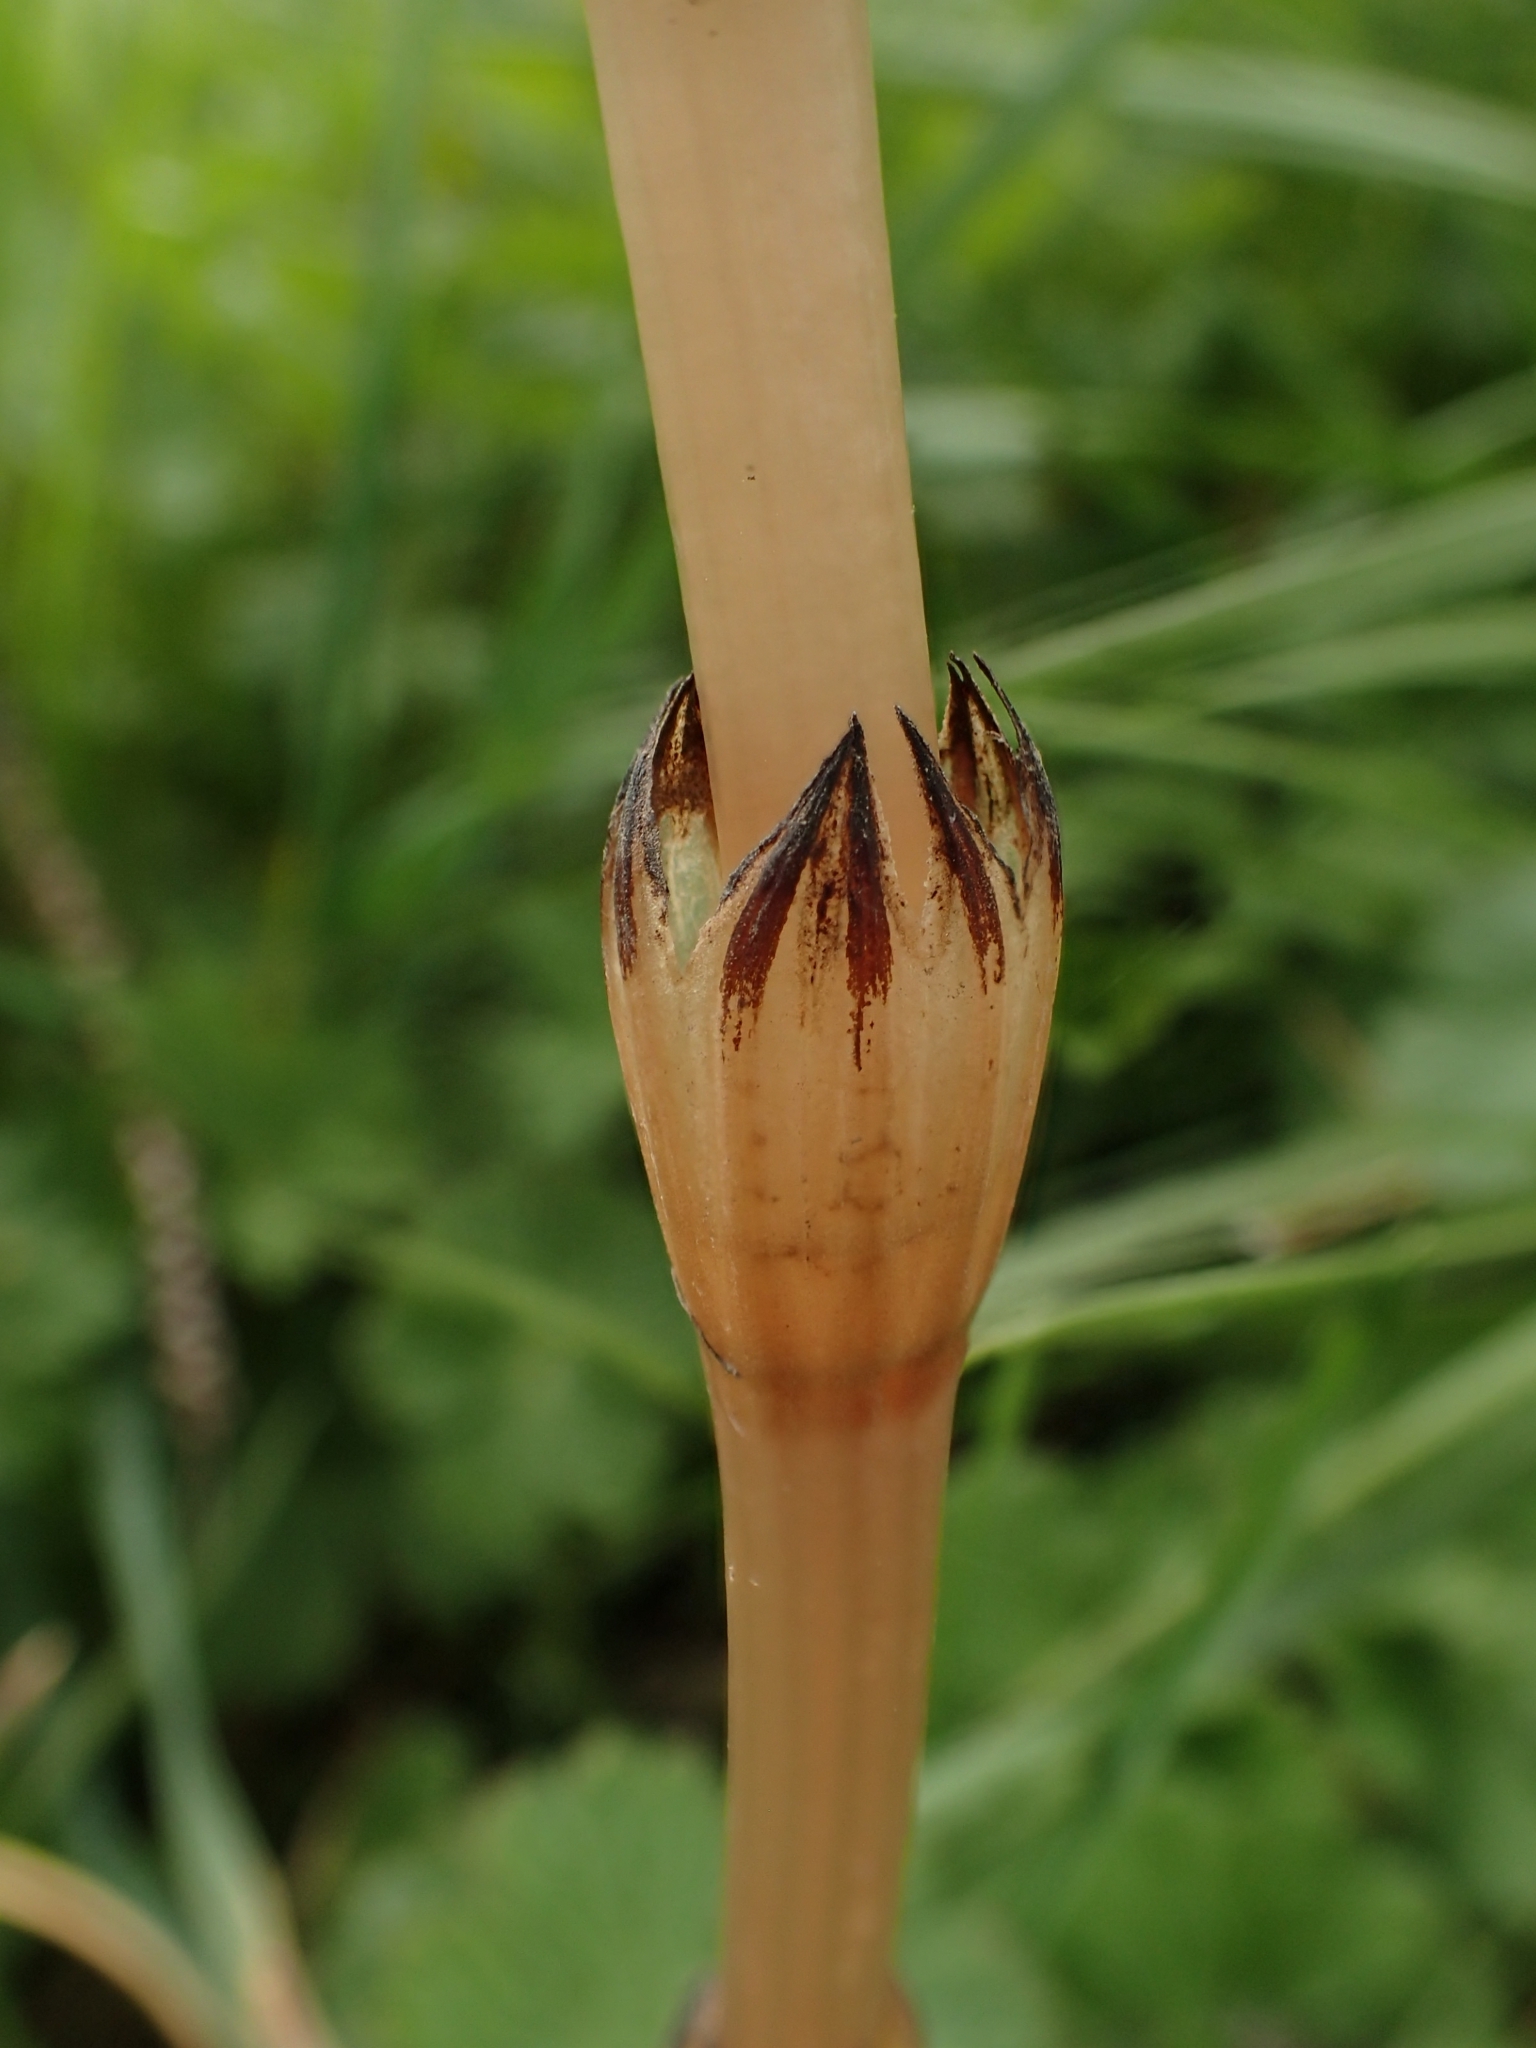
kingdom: Plantae
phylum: Tracheophyta
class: Polypodiopsida
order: Equisetales
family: Equisetaceae
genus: Equisetum
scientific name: Equisetum arvense
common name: Field horsetail
